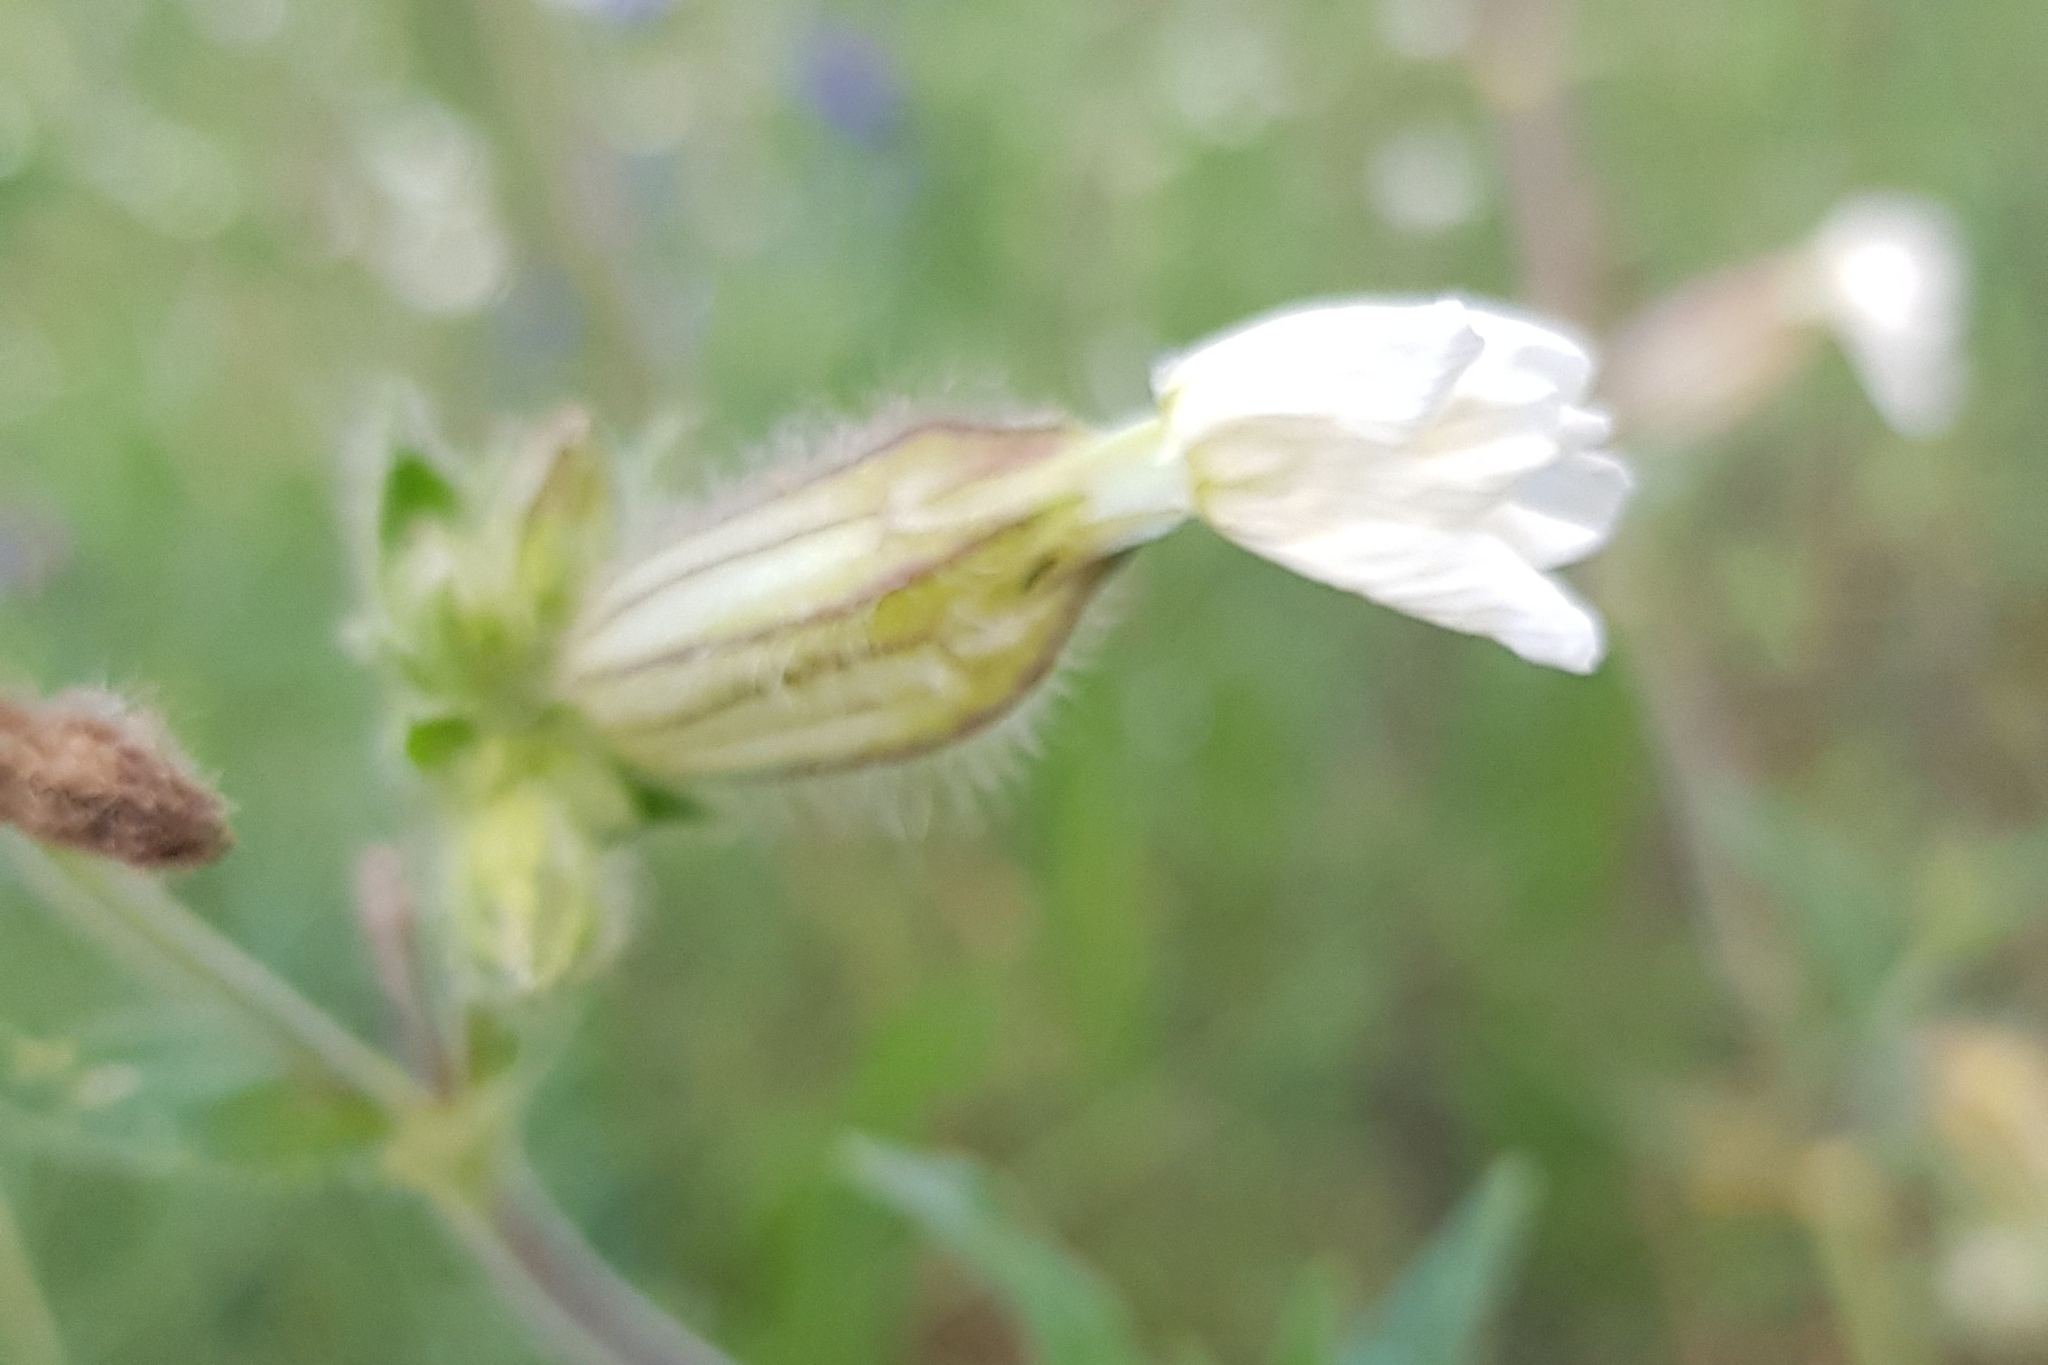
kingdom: Plantae
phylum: Tracheophyta
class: Magnoliopsida
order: Caryophyllales
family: Caryophyllaceae
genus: Silene
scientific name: Silene latifolia
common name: White campion
